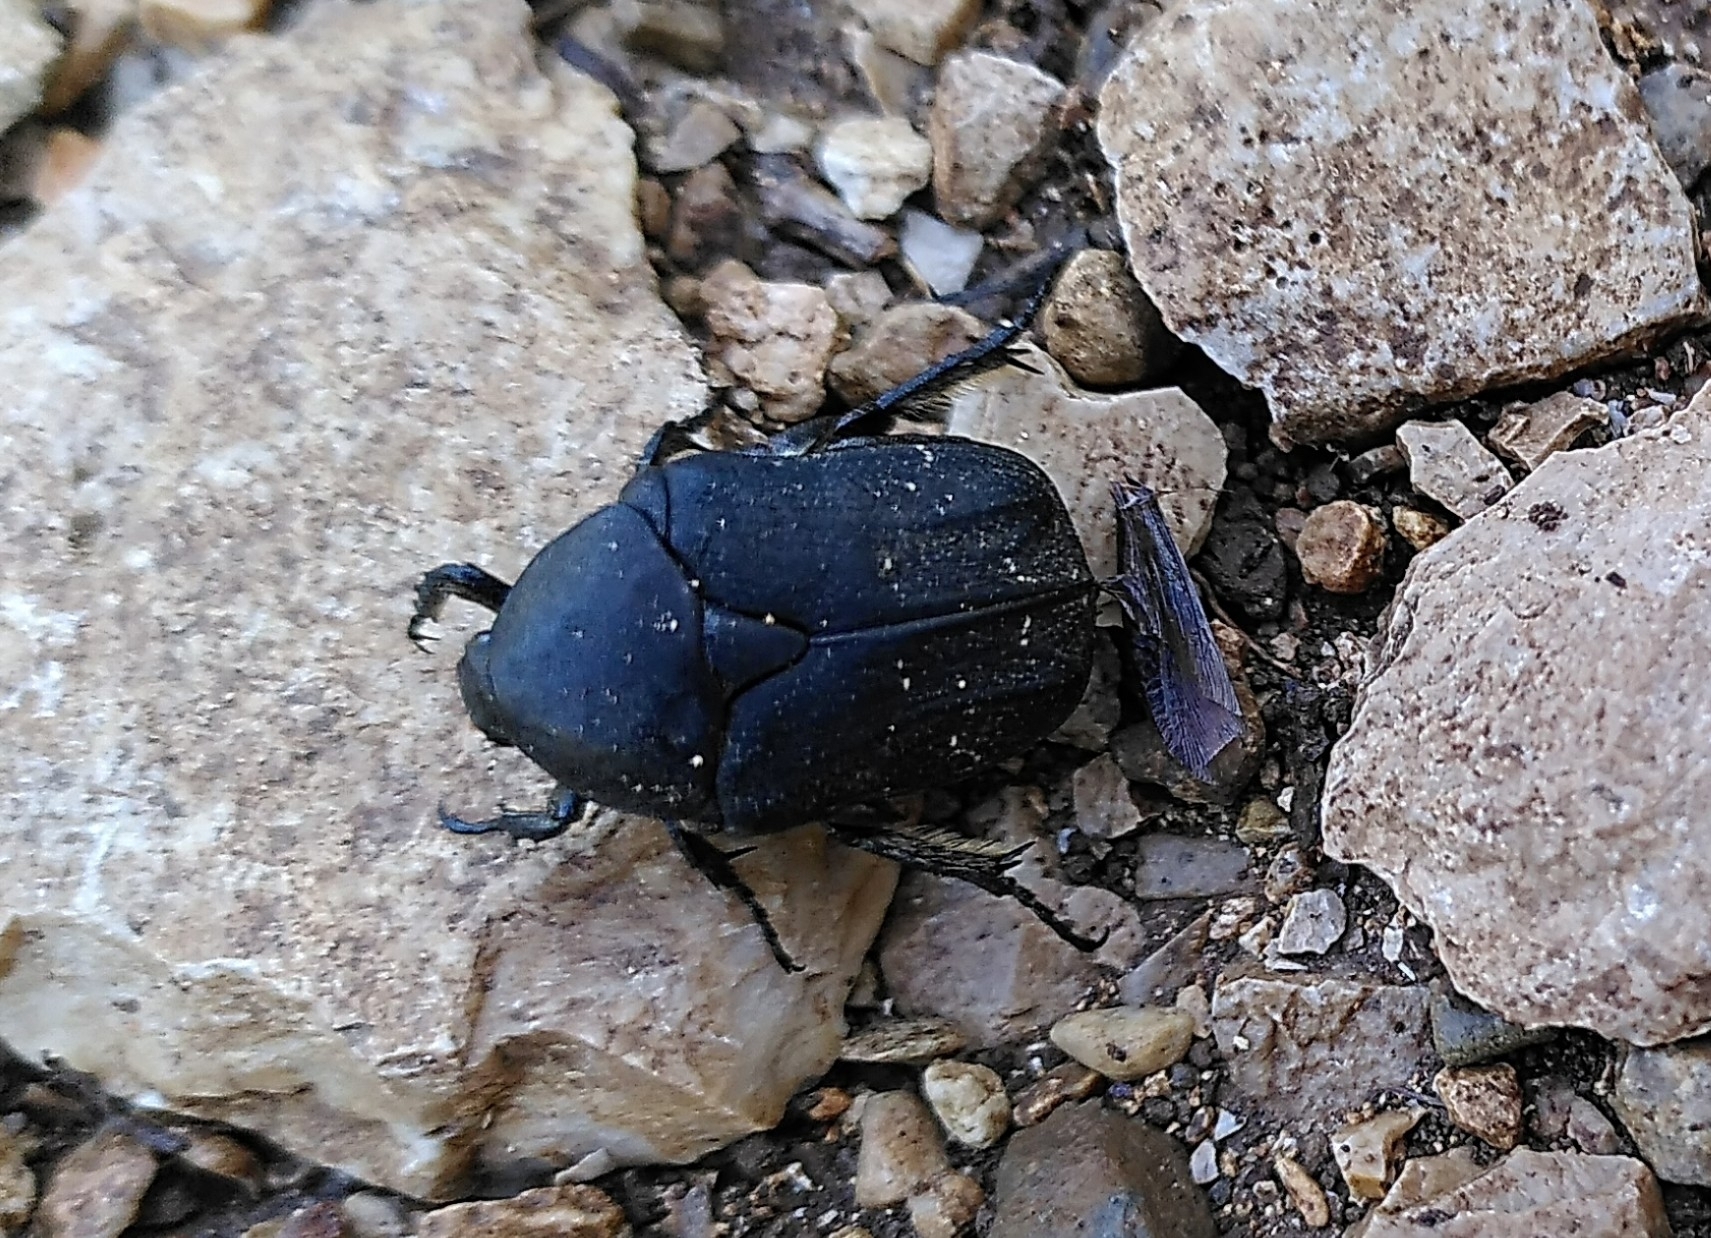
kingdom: Animalia
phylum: Arthropoda
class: Insecta
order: Coleoptera
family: Scarabaeidae
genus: Protaetia
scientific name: Protaetia morio
